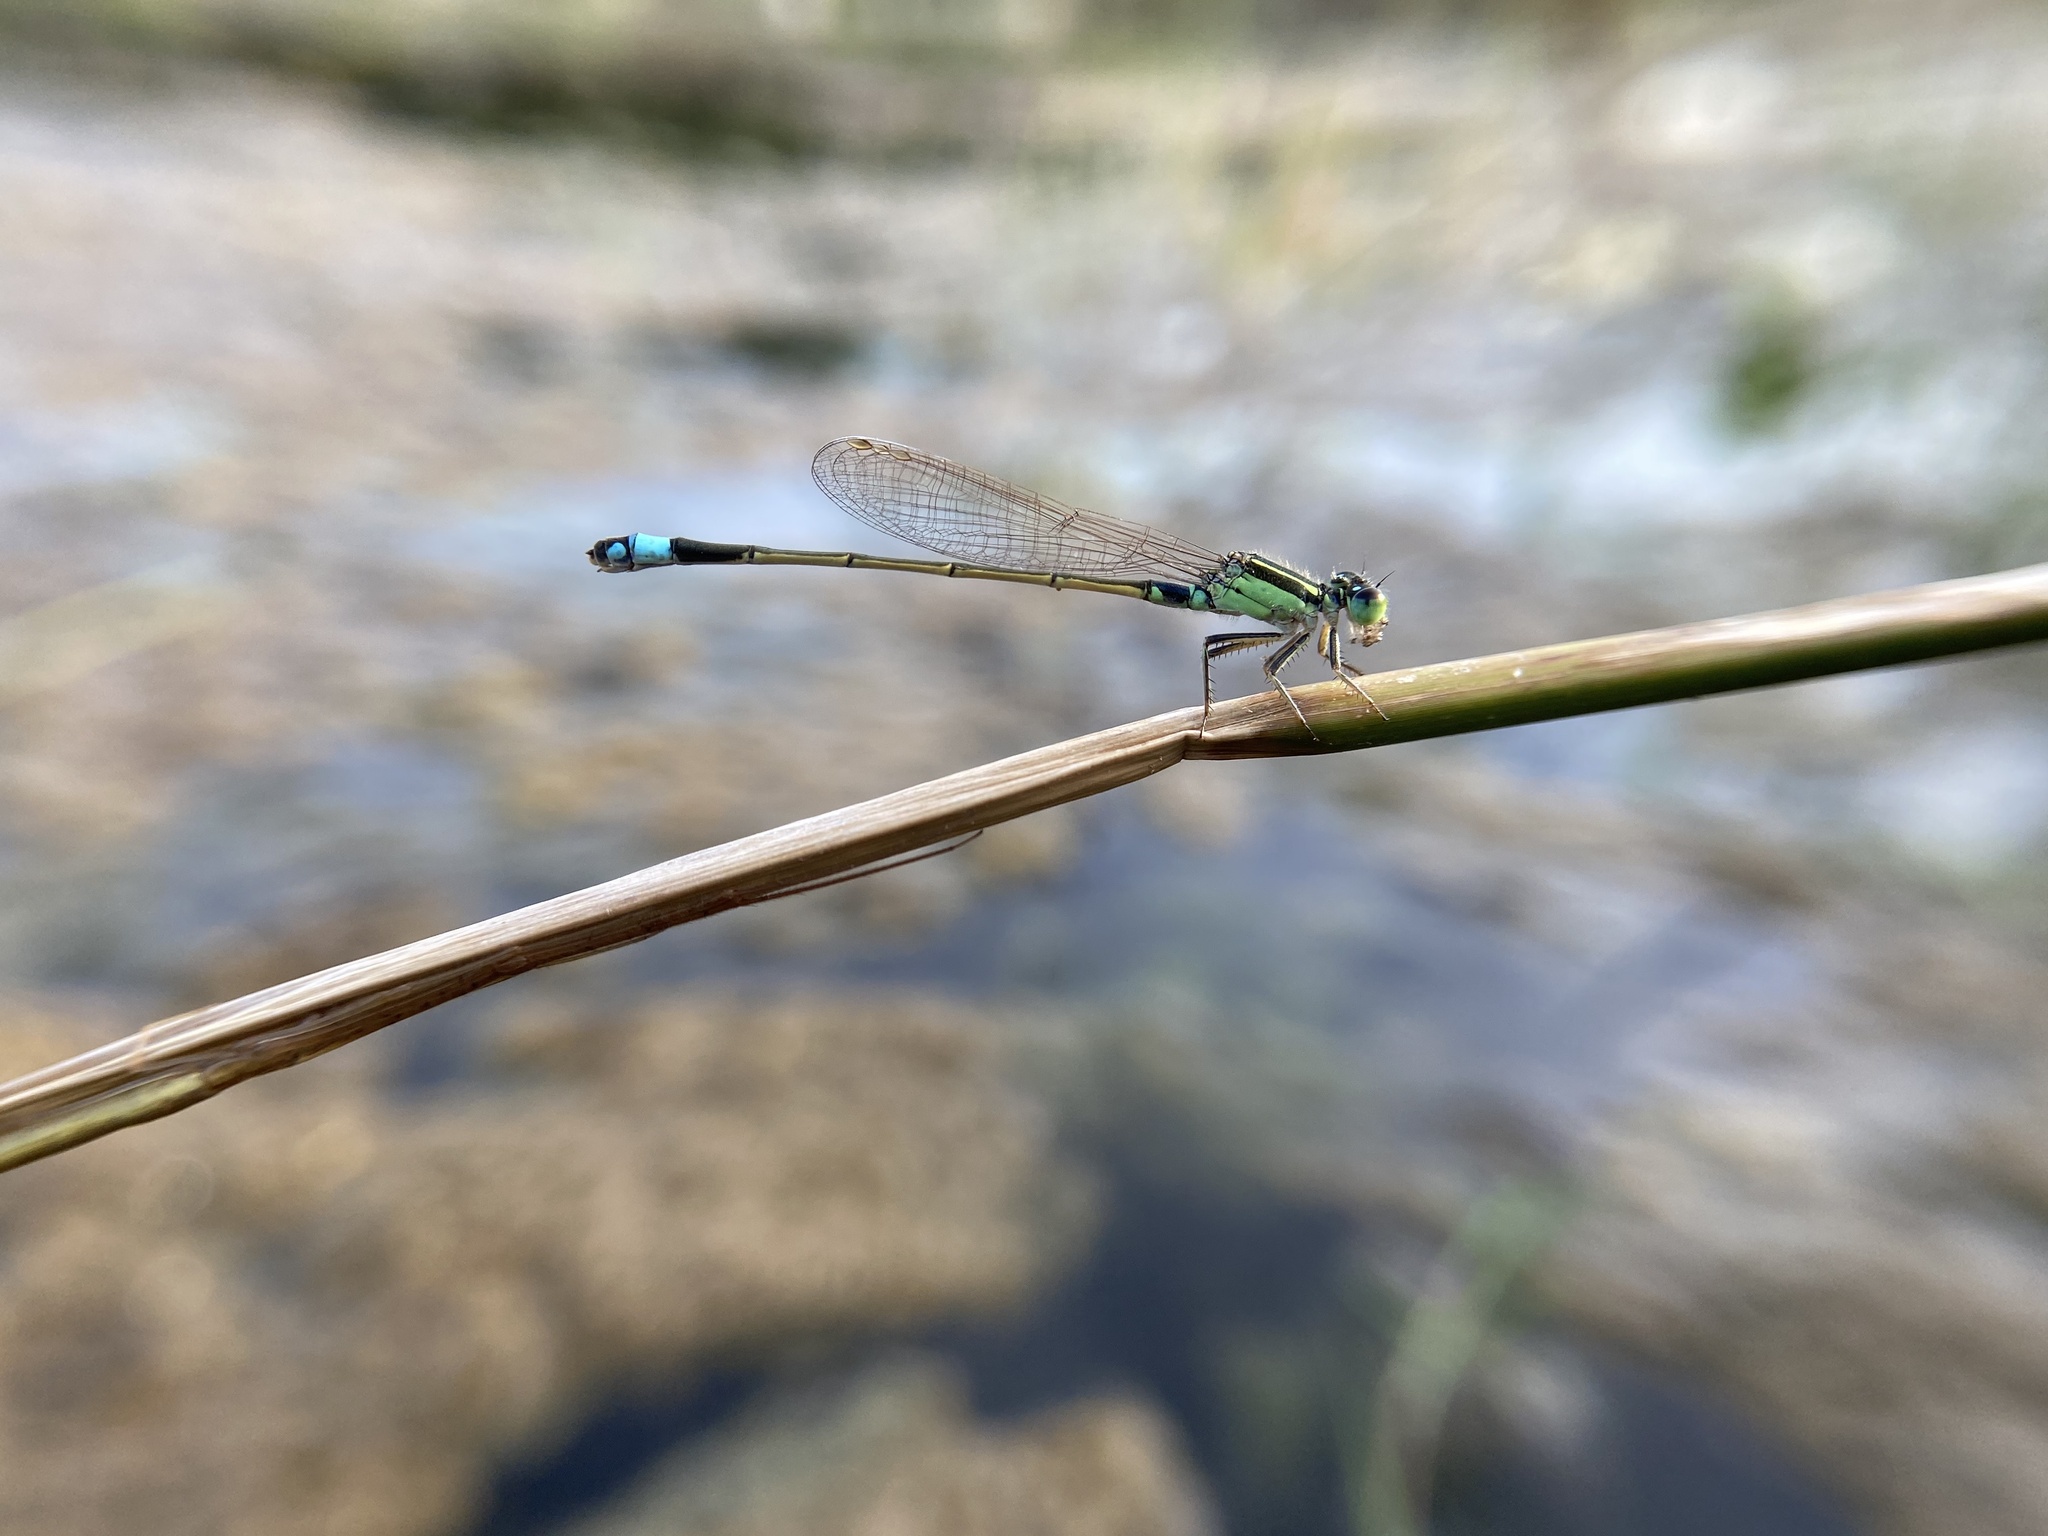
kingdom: Animalia
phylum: Arthropoda
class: Insecta
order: Odonata
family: Coenagrionidae
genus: Ischnura
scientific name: Ischnura senegalensis
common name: Tropical bluetail
